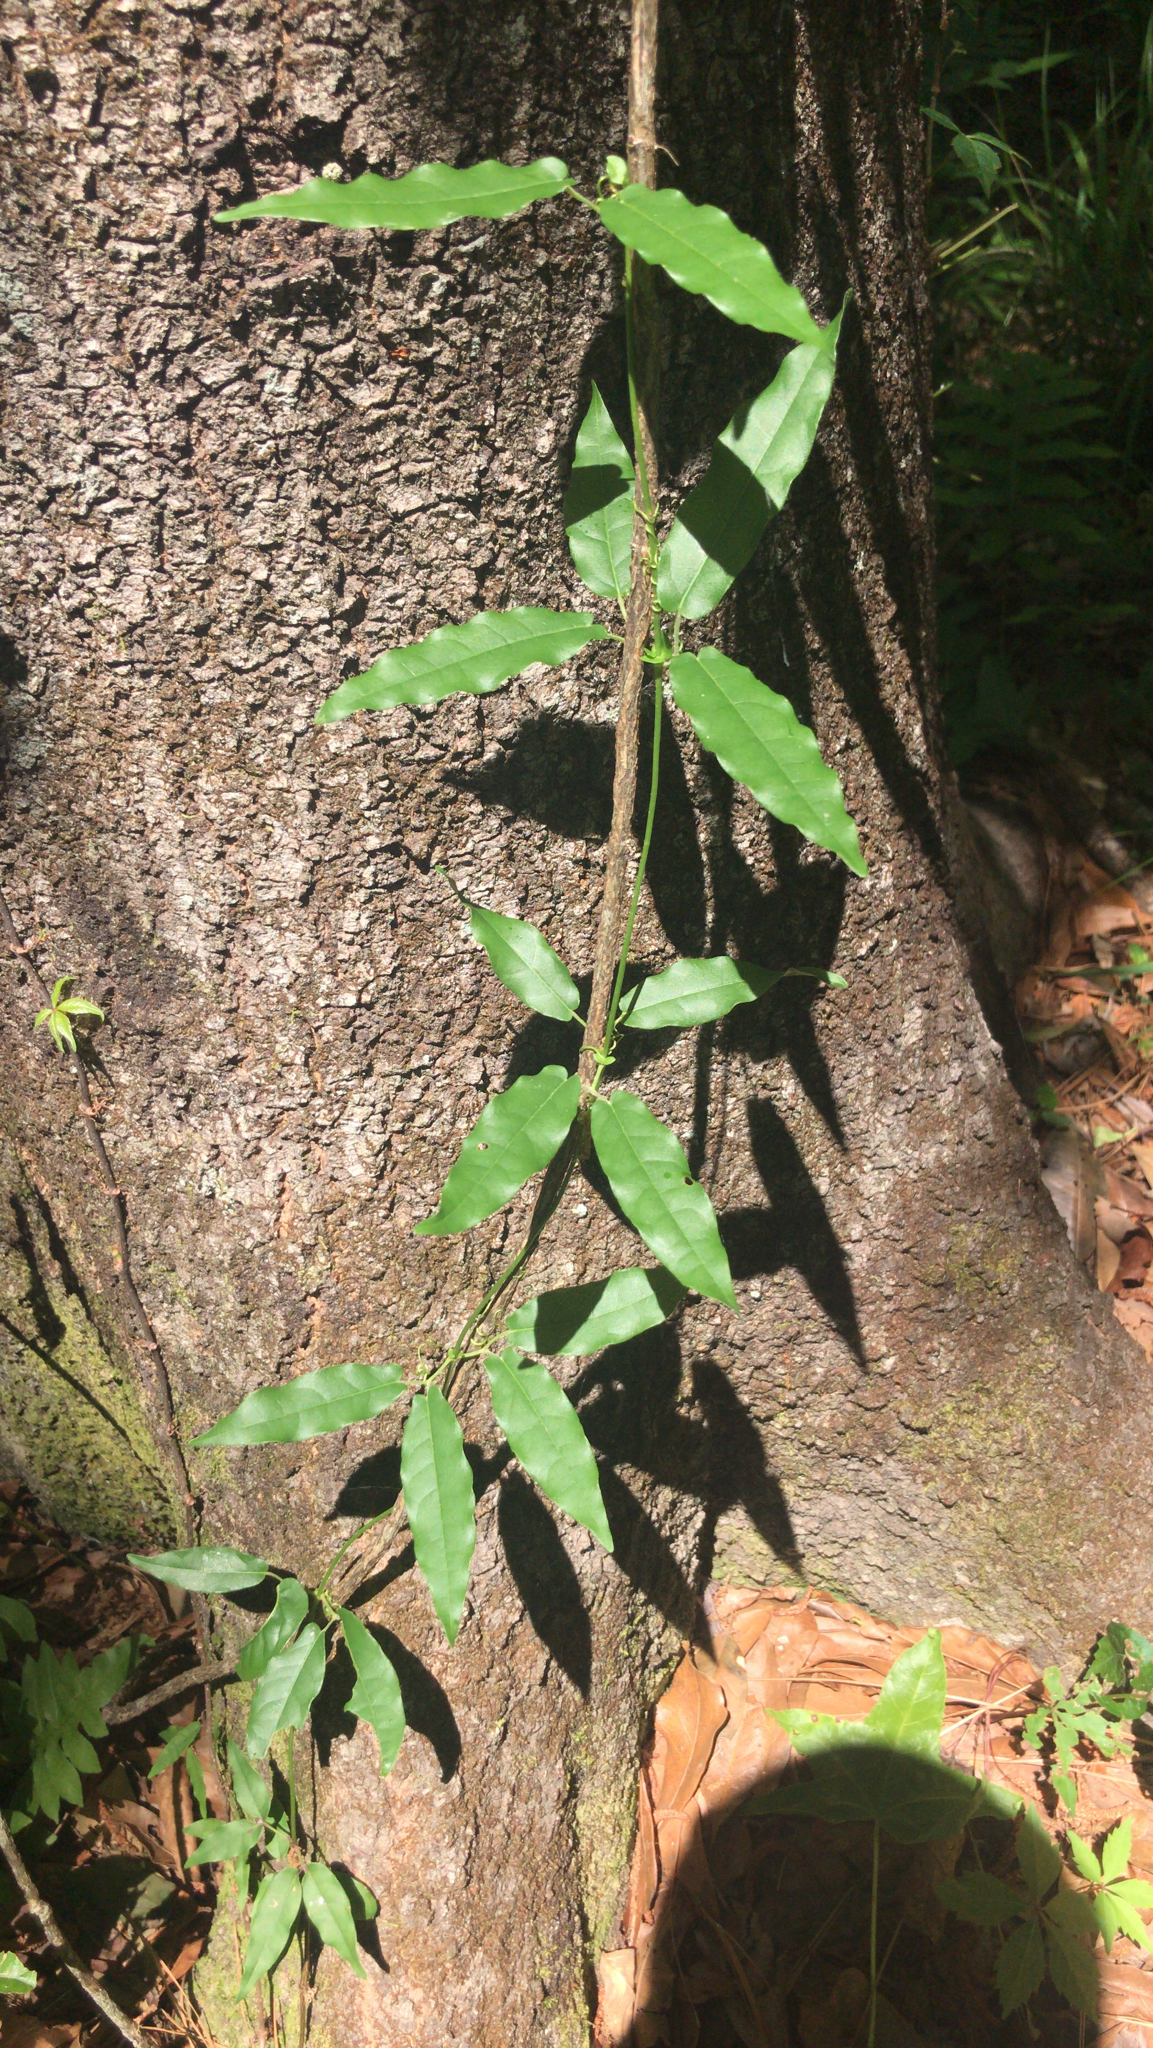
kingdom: Plantae
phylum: Tracheophyta
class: Magnoliopsida
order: Lamiales
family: Bignoniaceae
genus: Bignonia
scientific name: Bignonia capreolata
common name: Crossvine
